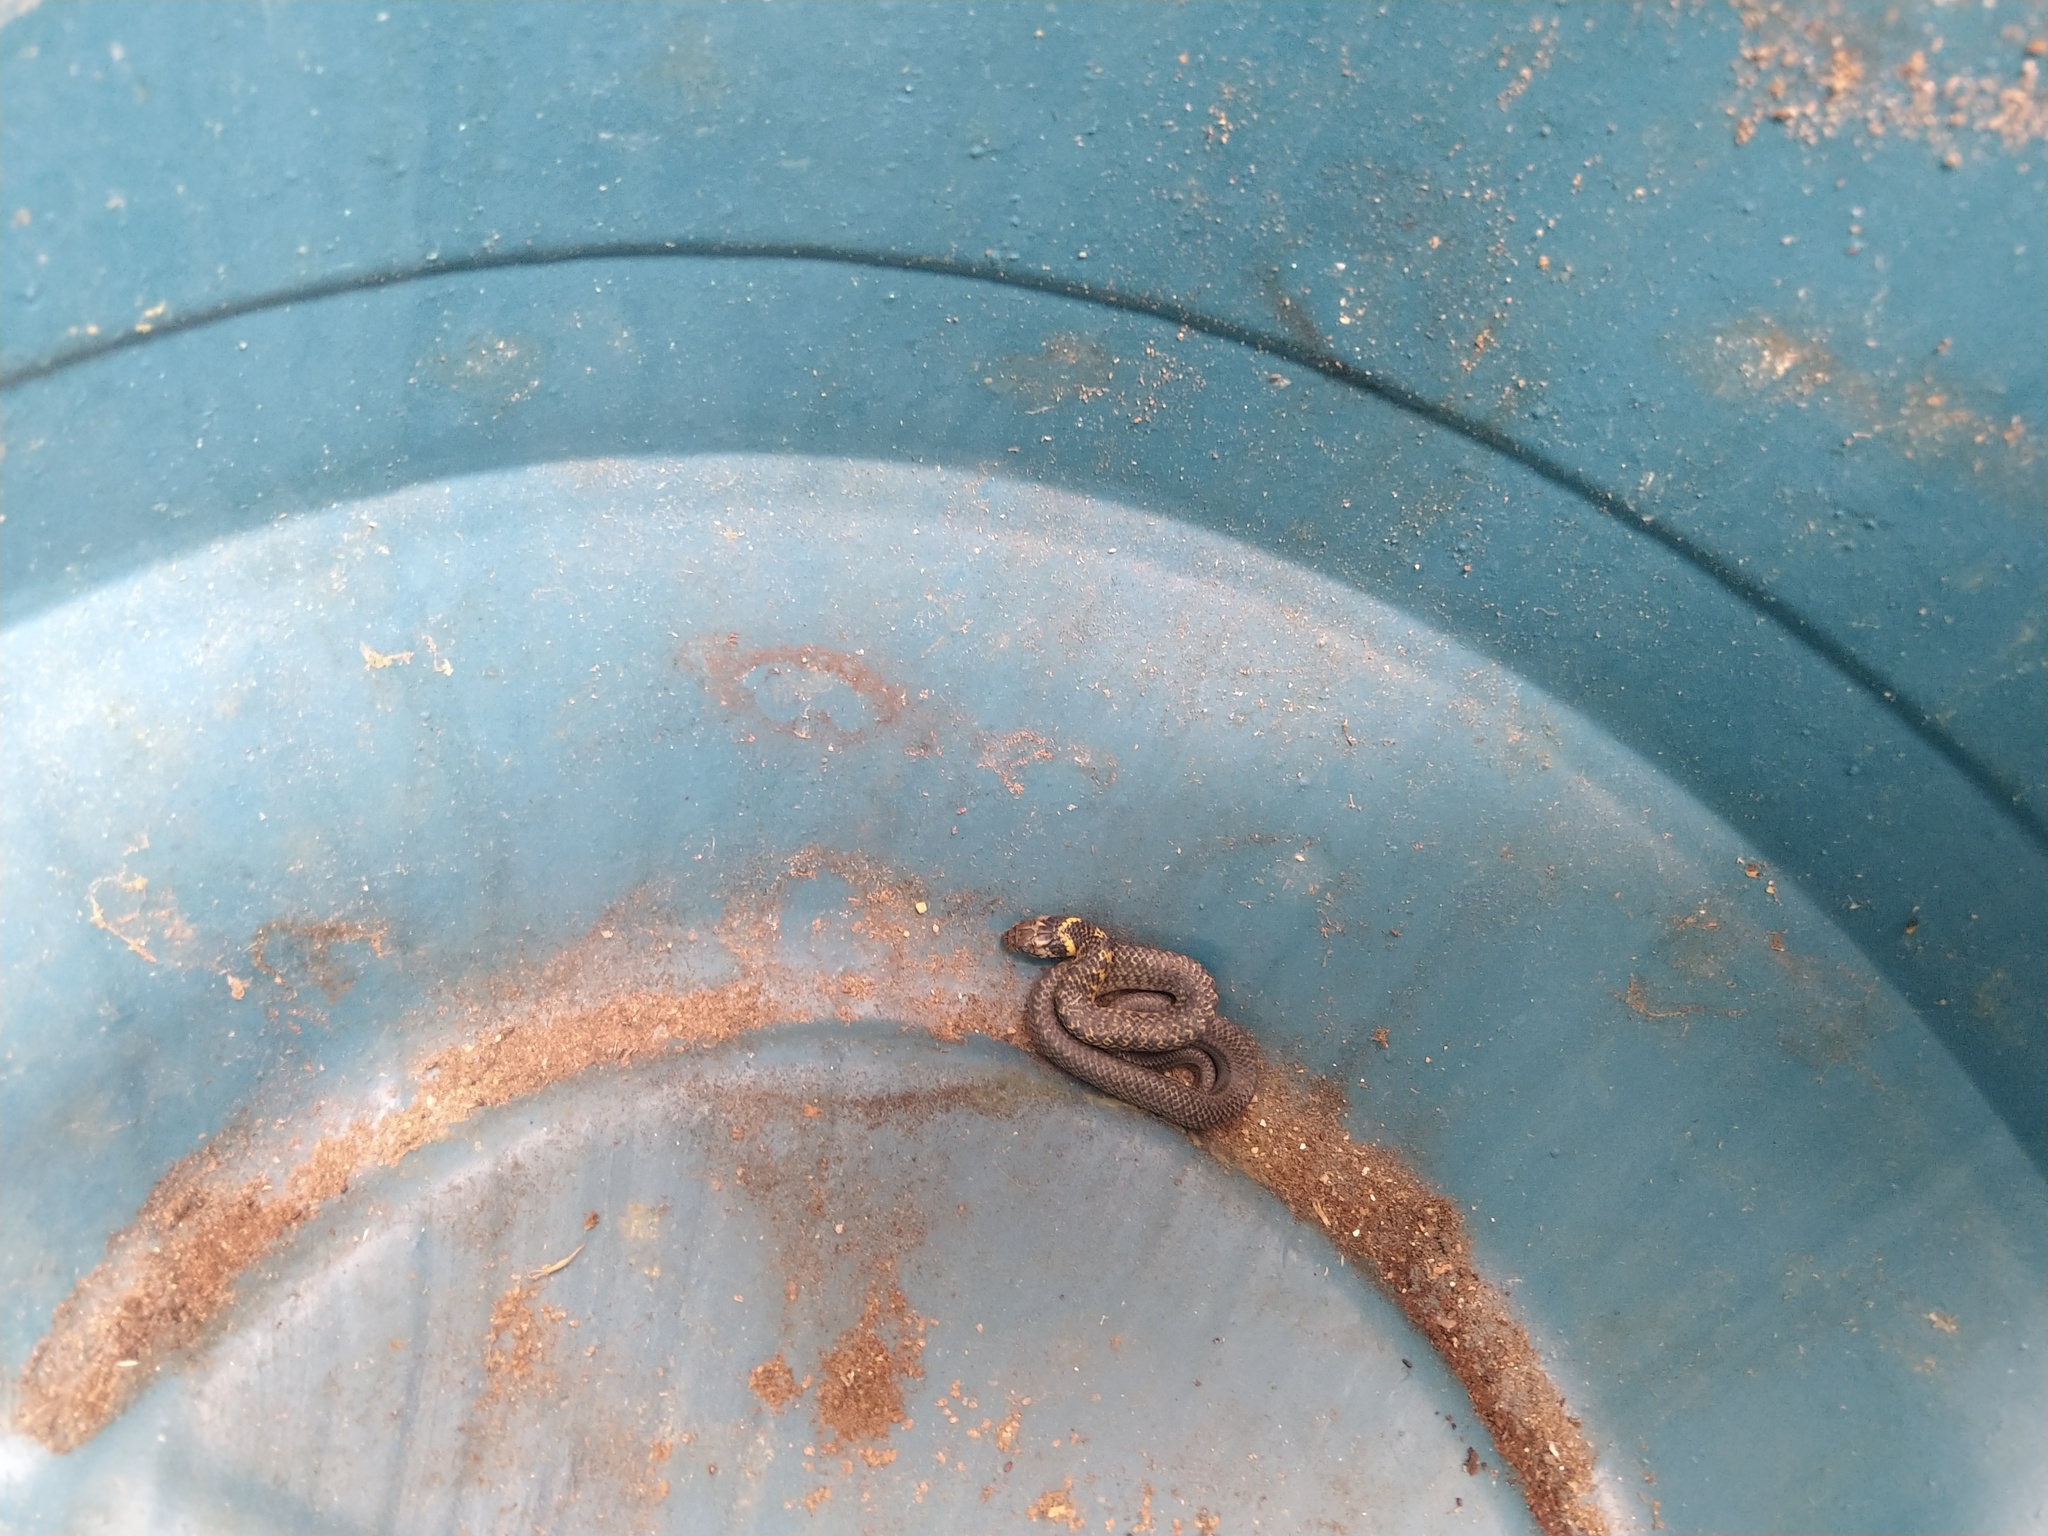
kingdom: Animalia
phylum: Chordata
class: Squamata
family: Colubridae
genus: Erythrolamprus
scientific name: Erythrolamprus miliaris
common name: Military ground snake
